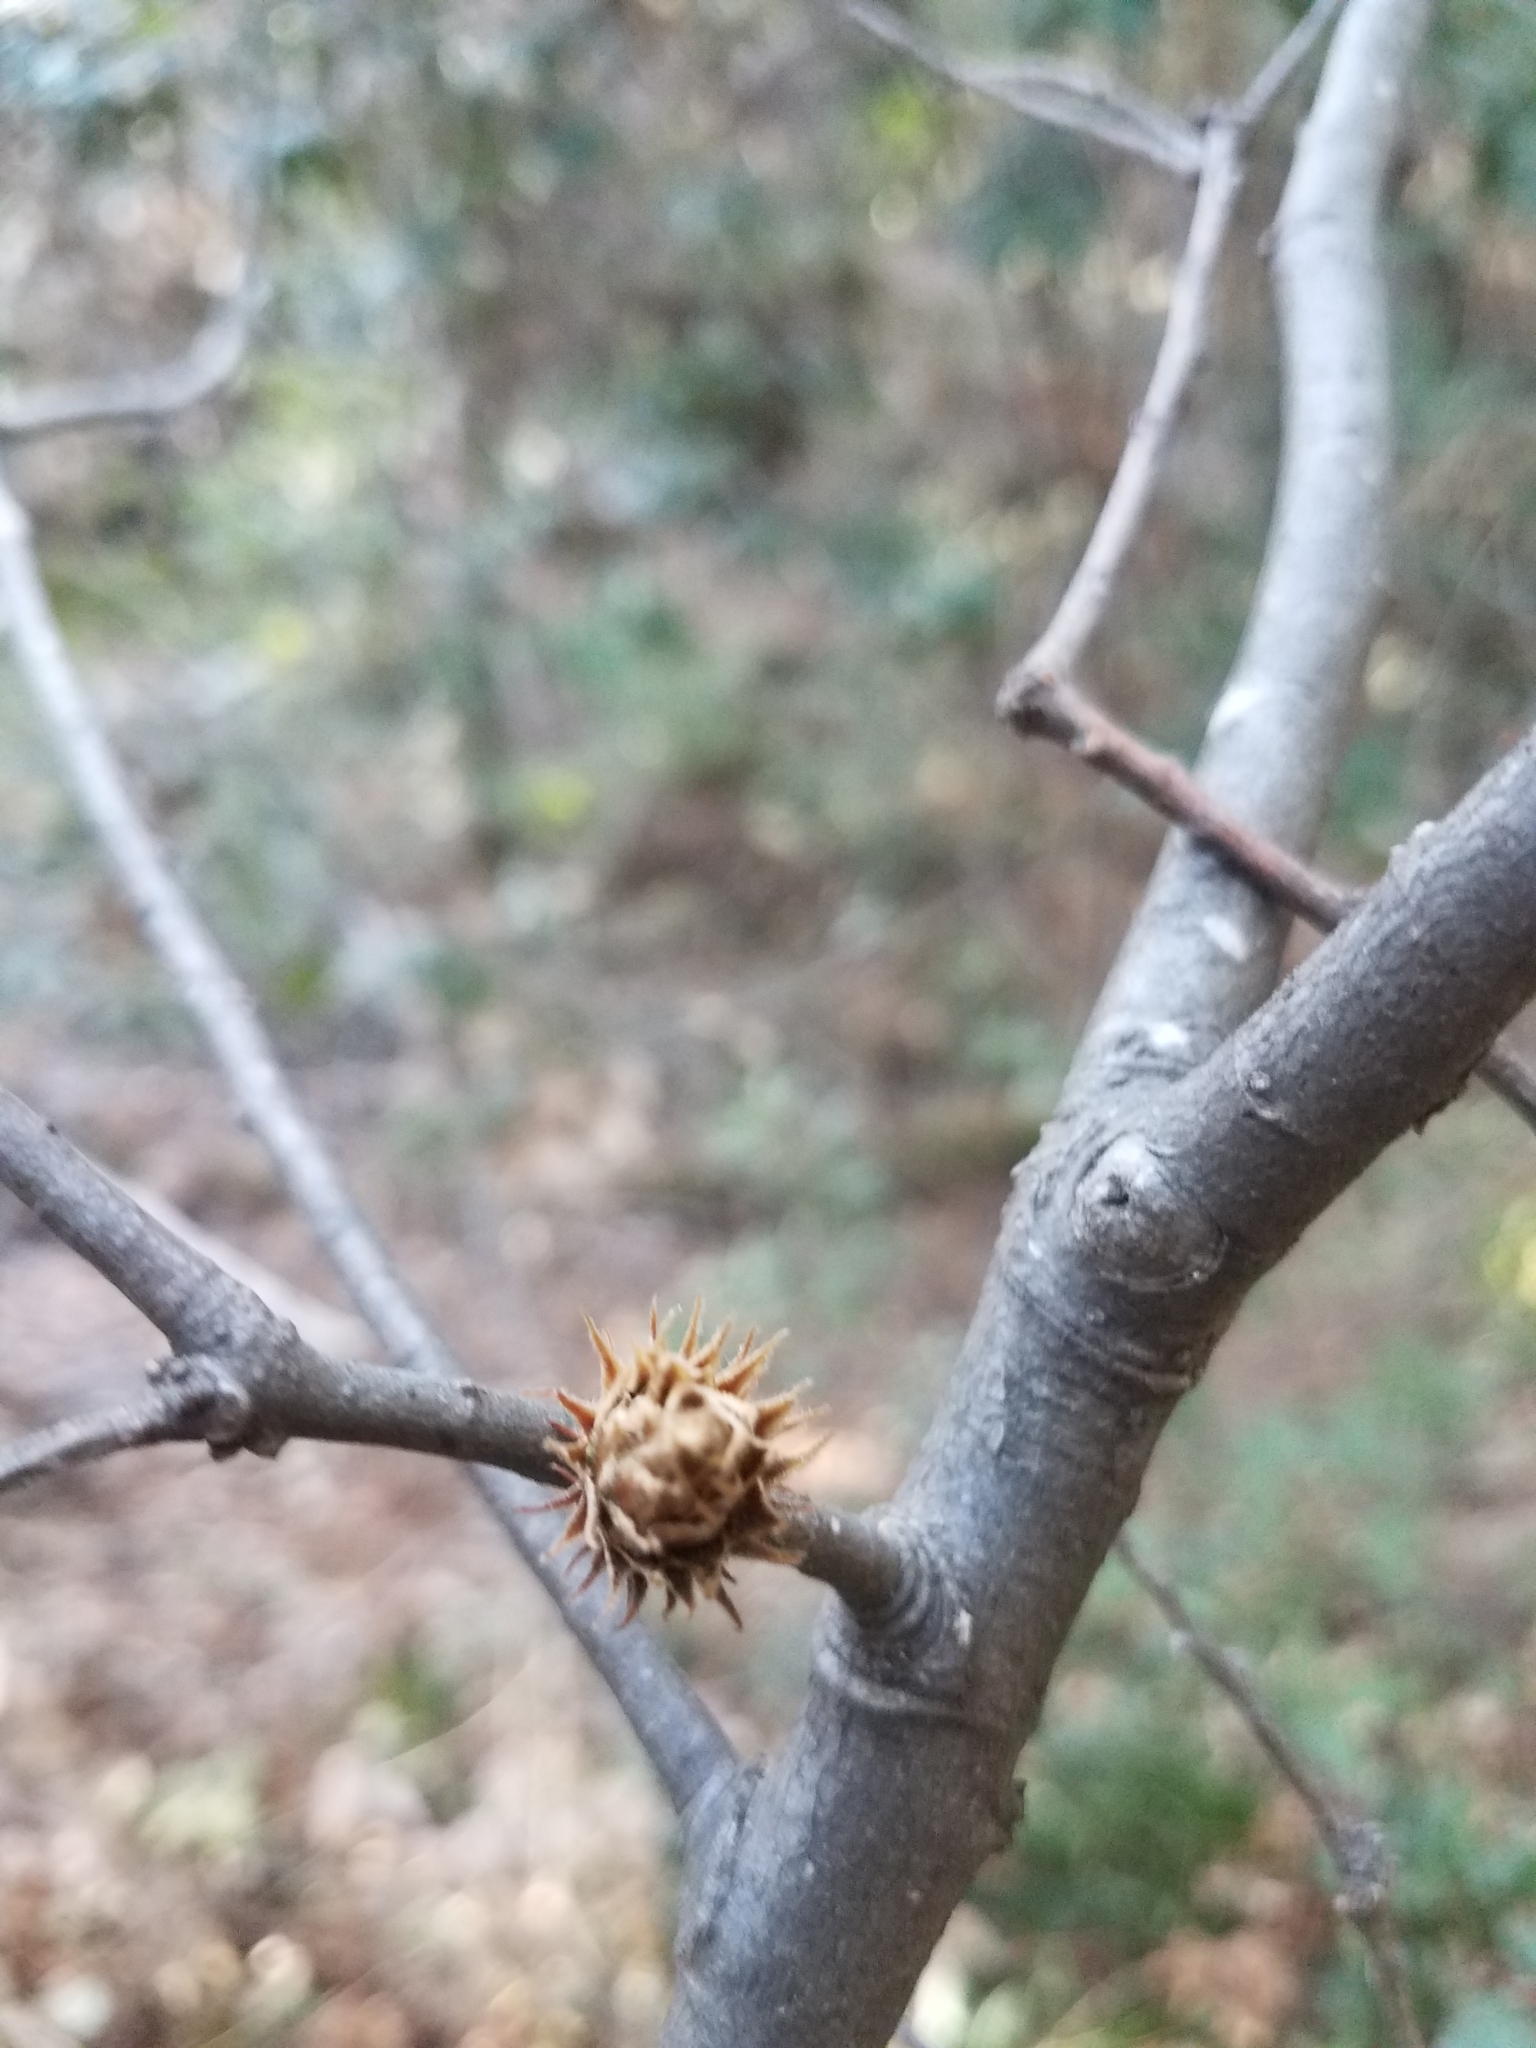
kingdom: Animalia
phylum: Arthropoda
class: Insecta
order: Hymenoptera
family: Cynipidae
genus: Andricus
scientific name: Andricus
